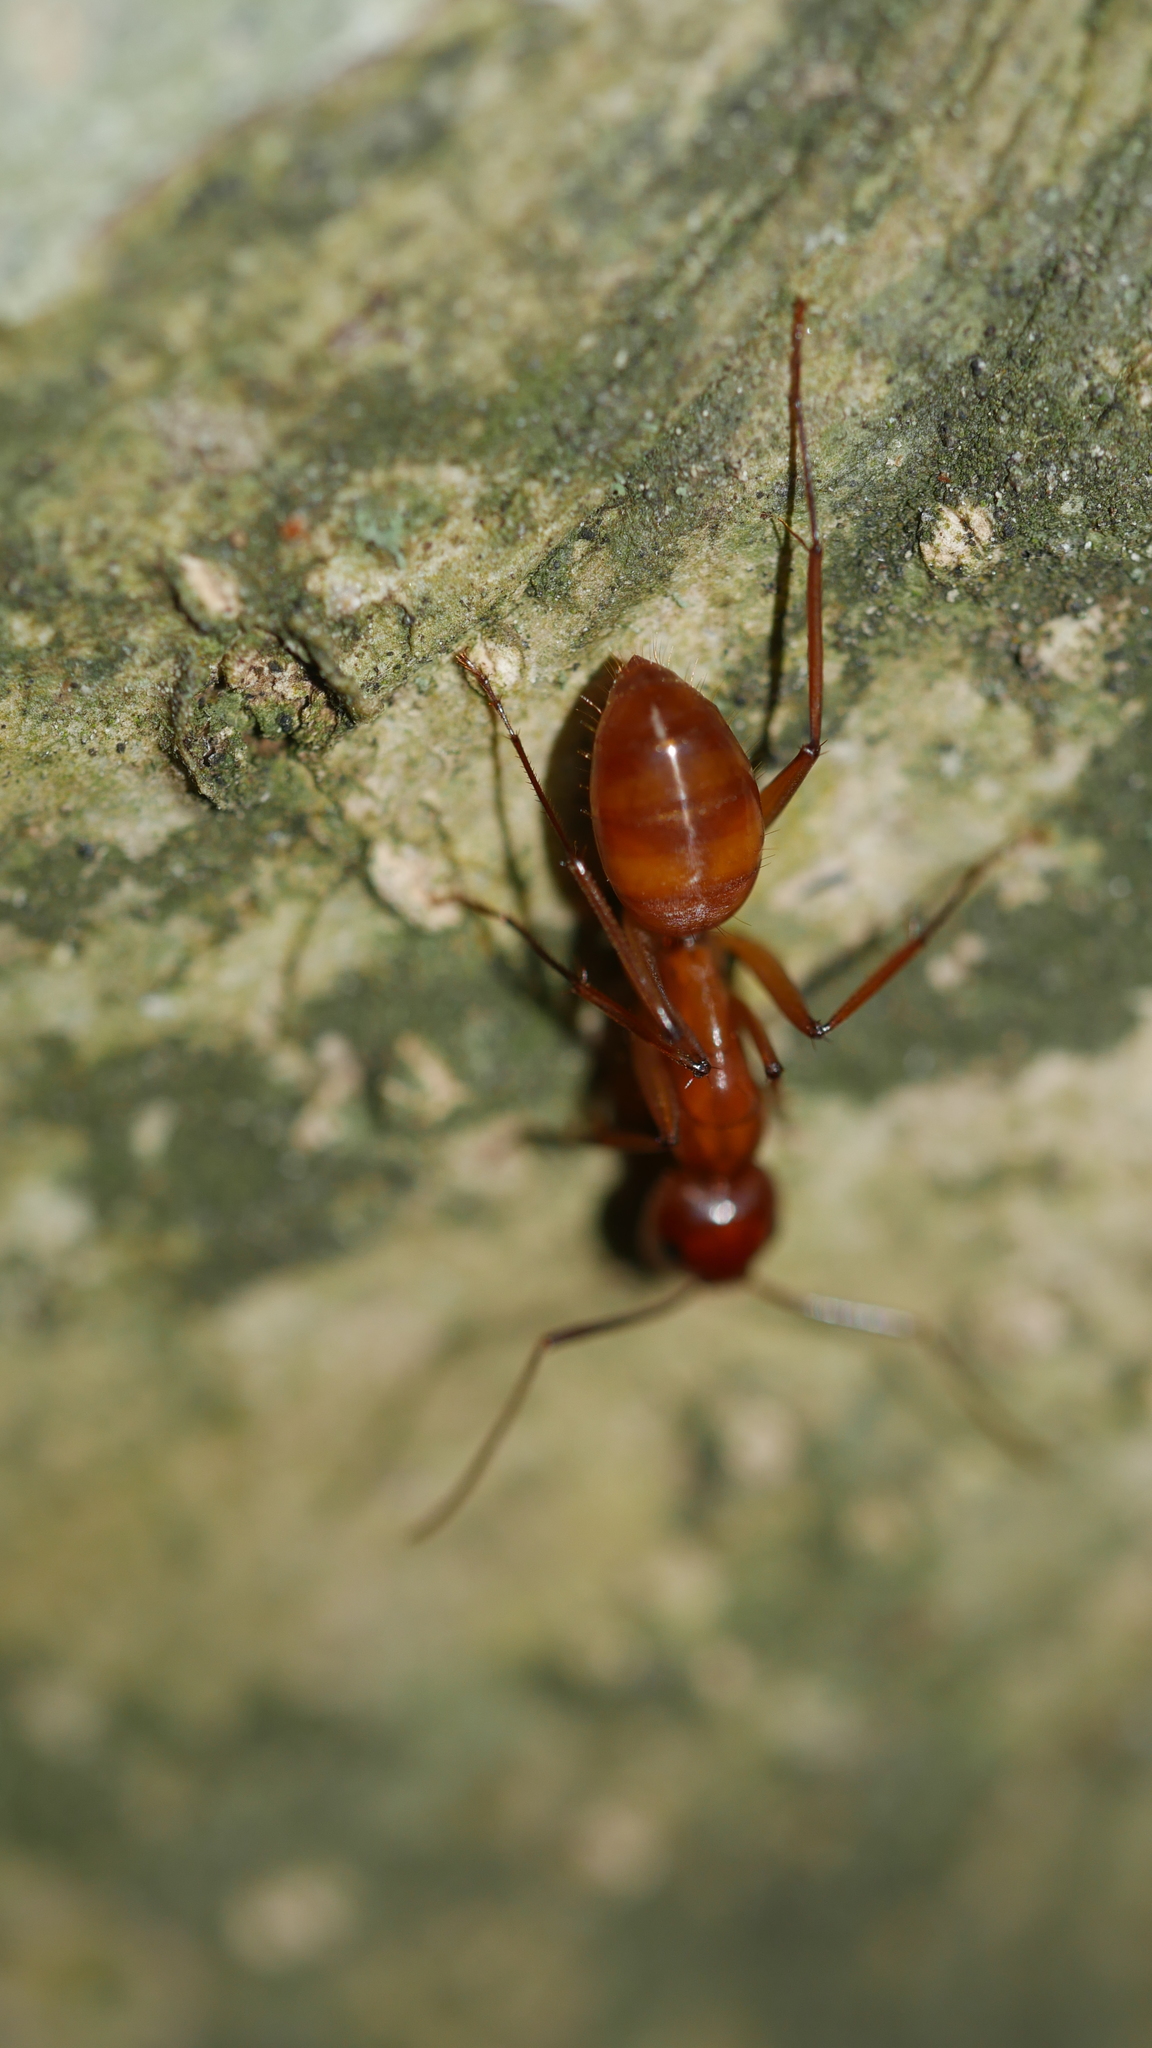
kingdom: Animalia
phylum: Arthropoda
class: Insecta
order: Hymenoptera
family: Formicidae
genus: Camponotus
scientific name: Camponotus castaneus
